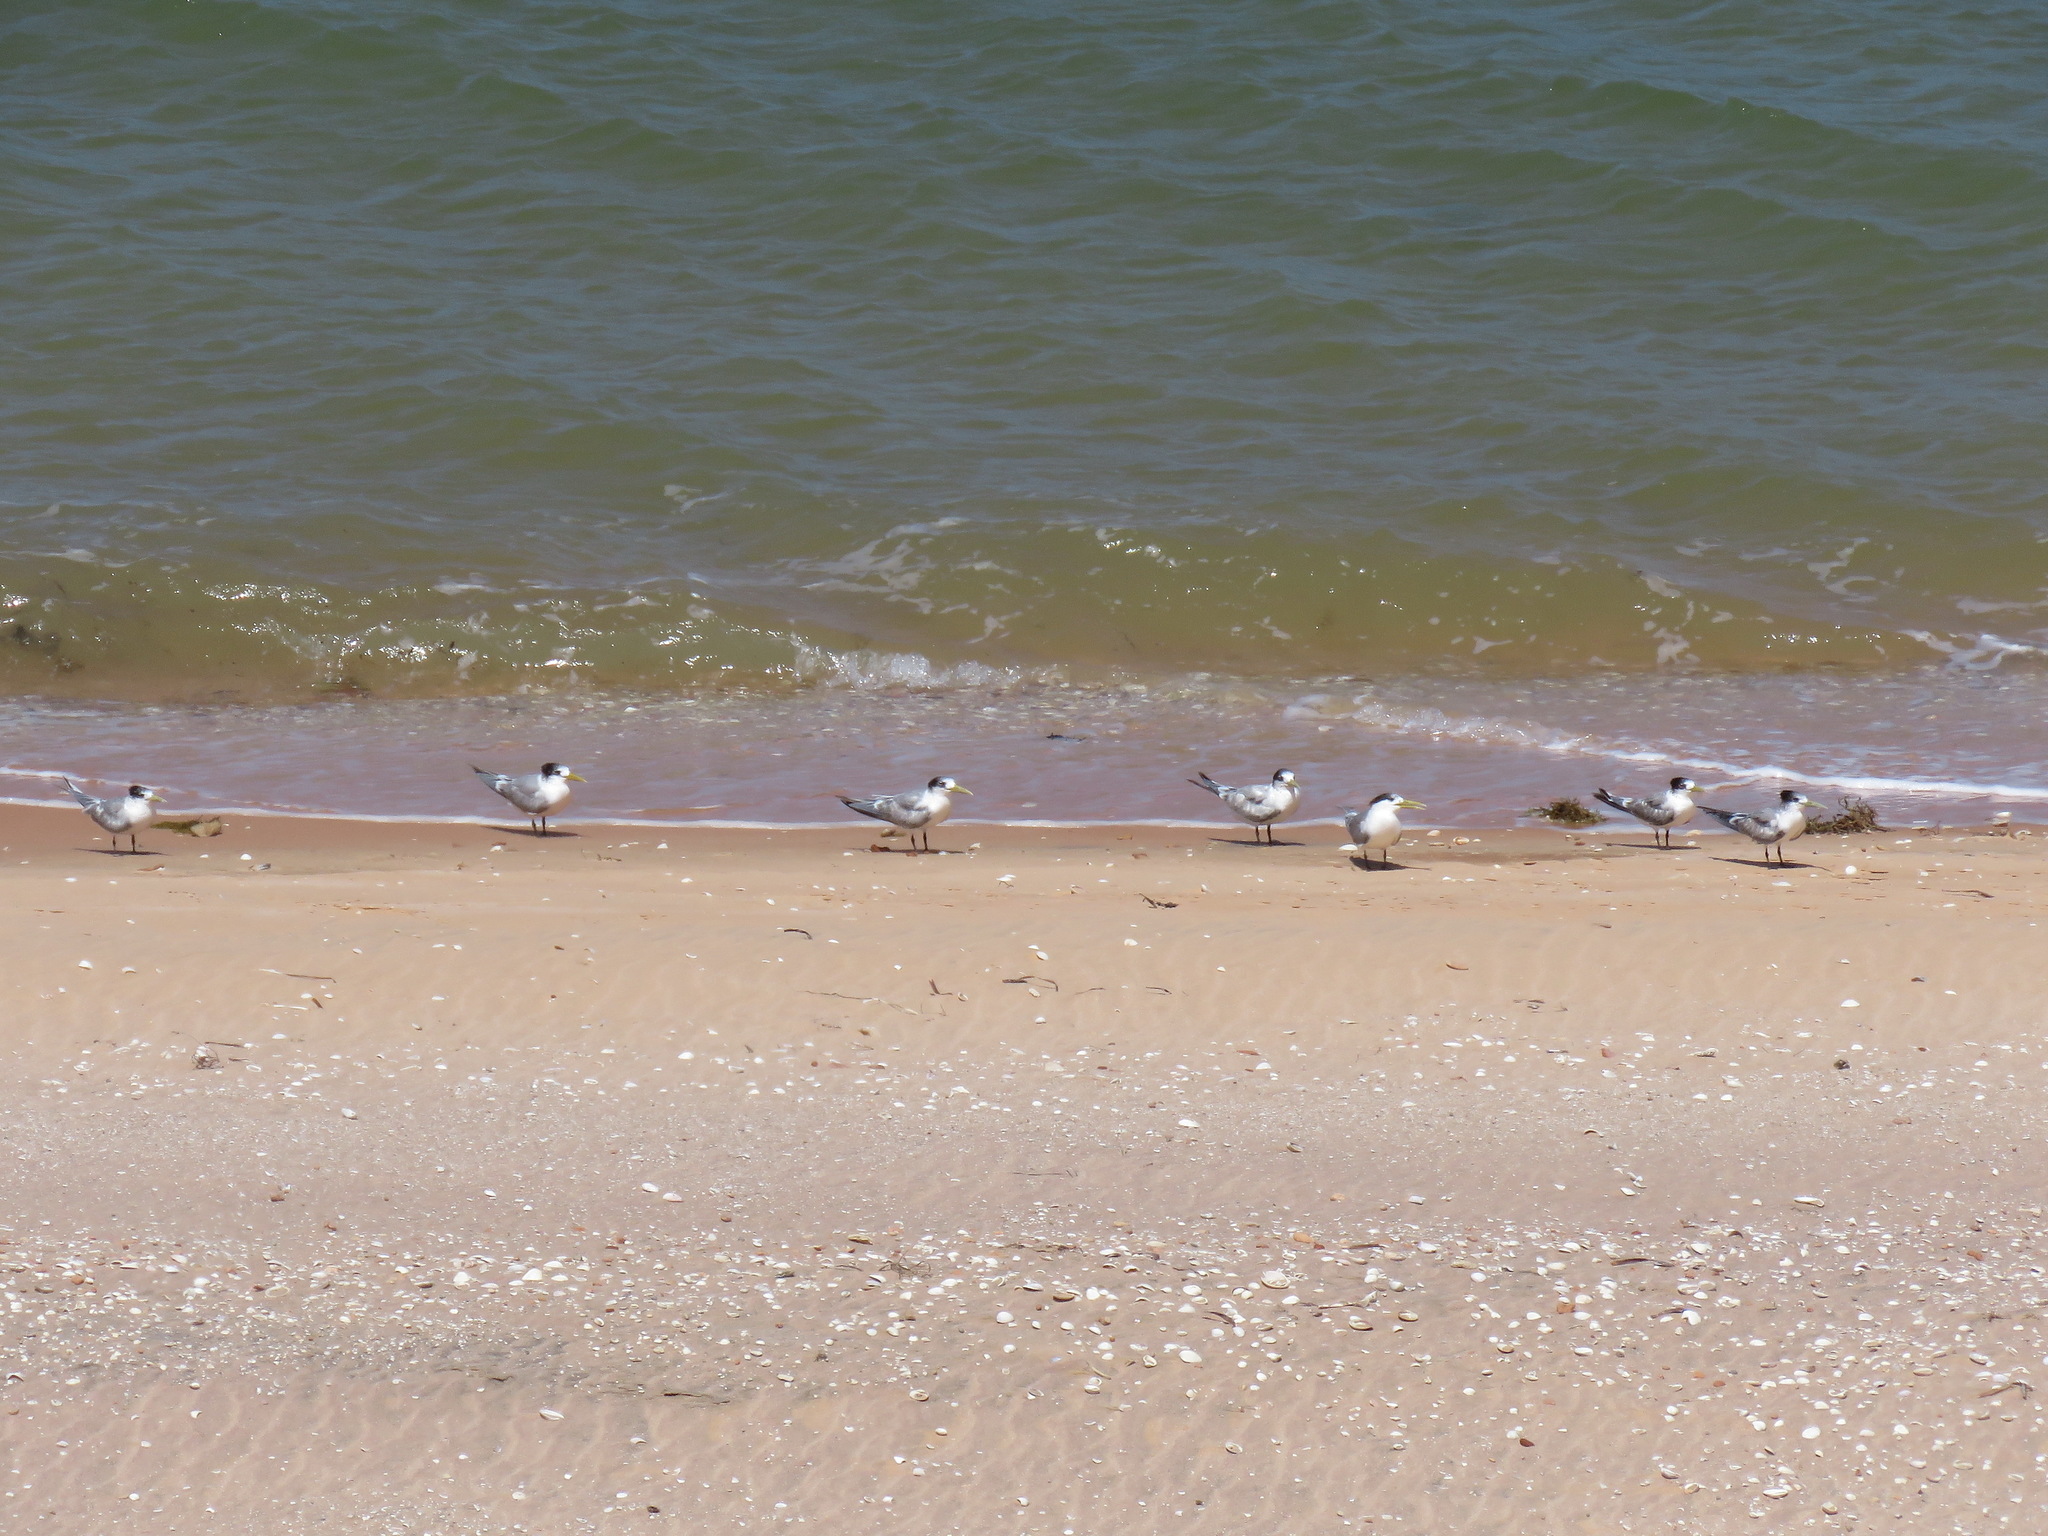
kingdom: Animalia
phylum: Chordata
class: Aves
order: Charadriiformes
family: Laridae
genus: Thalasseus
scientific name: Thalasseus bergii
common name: Greater crested tern
